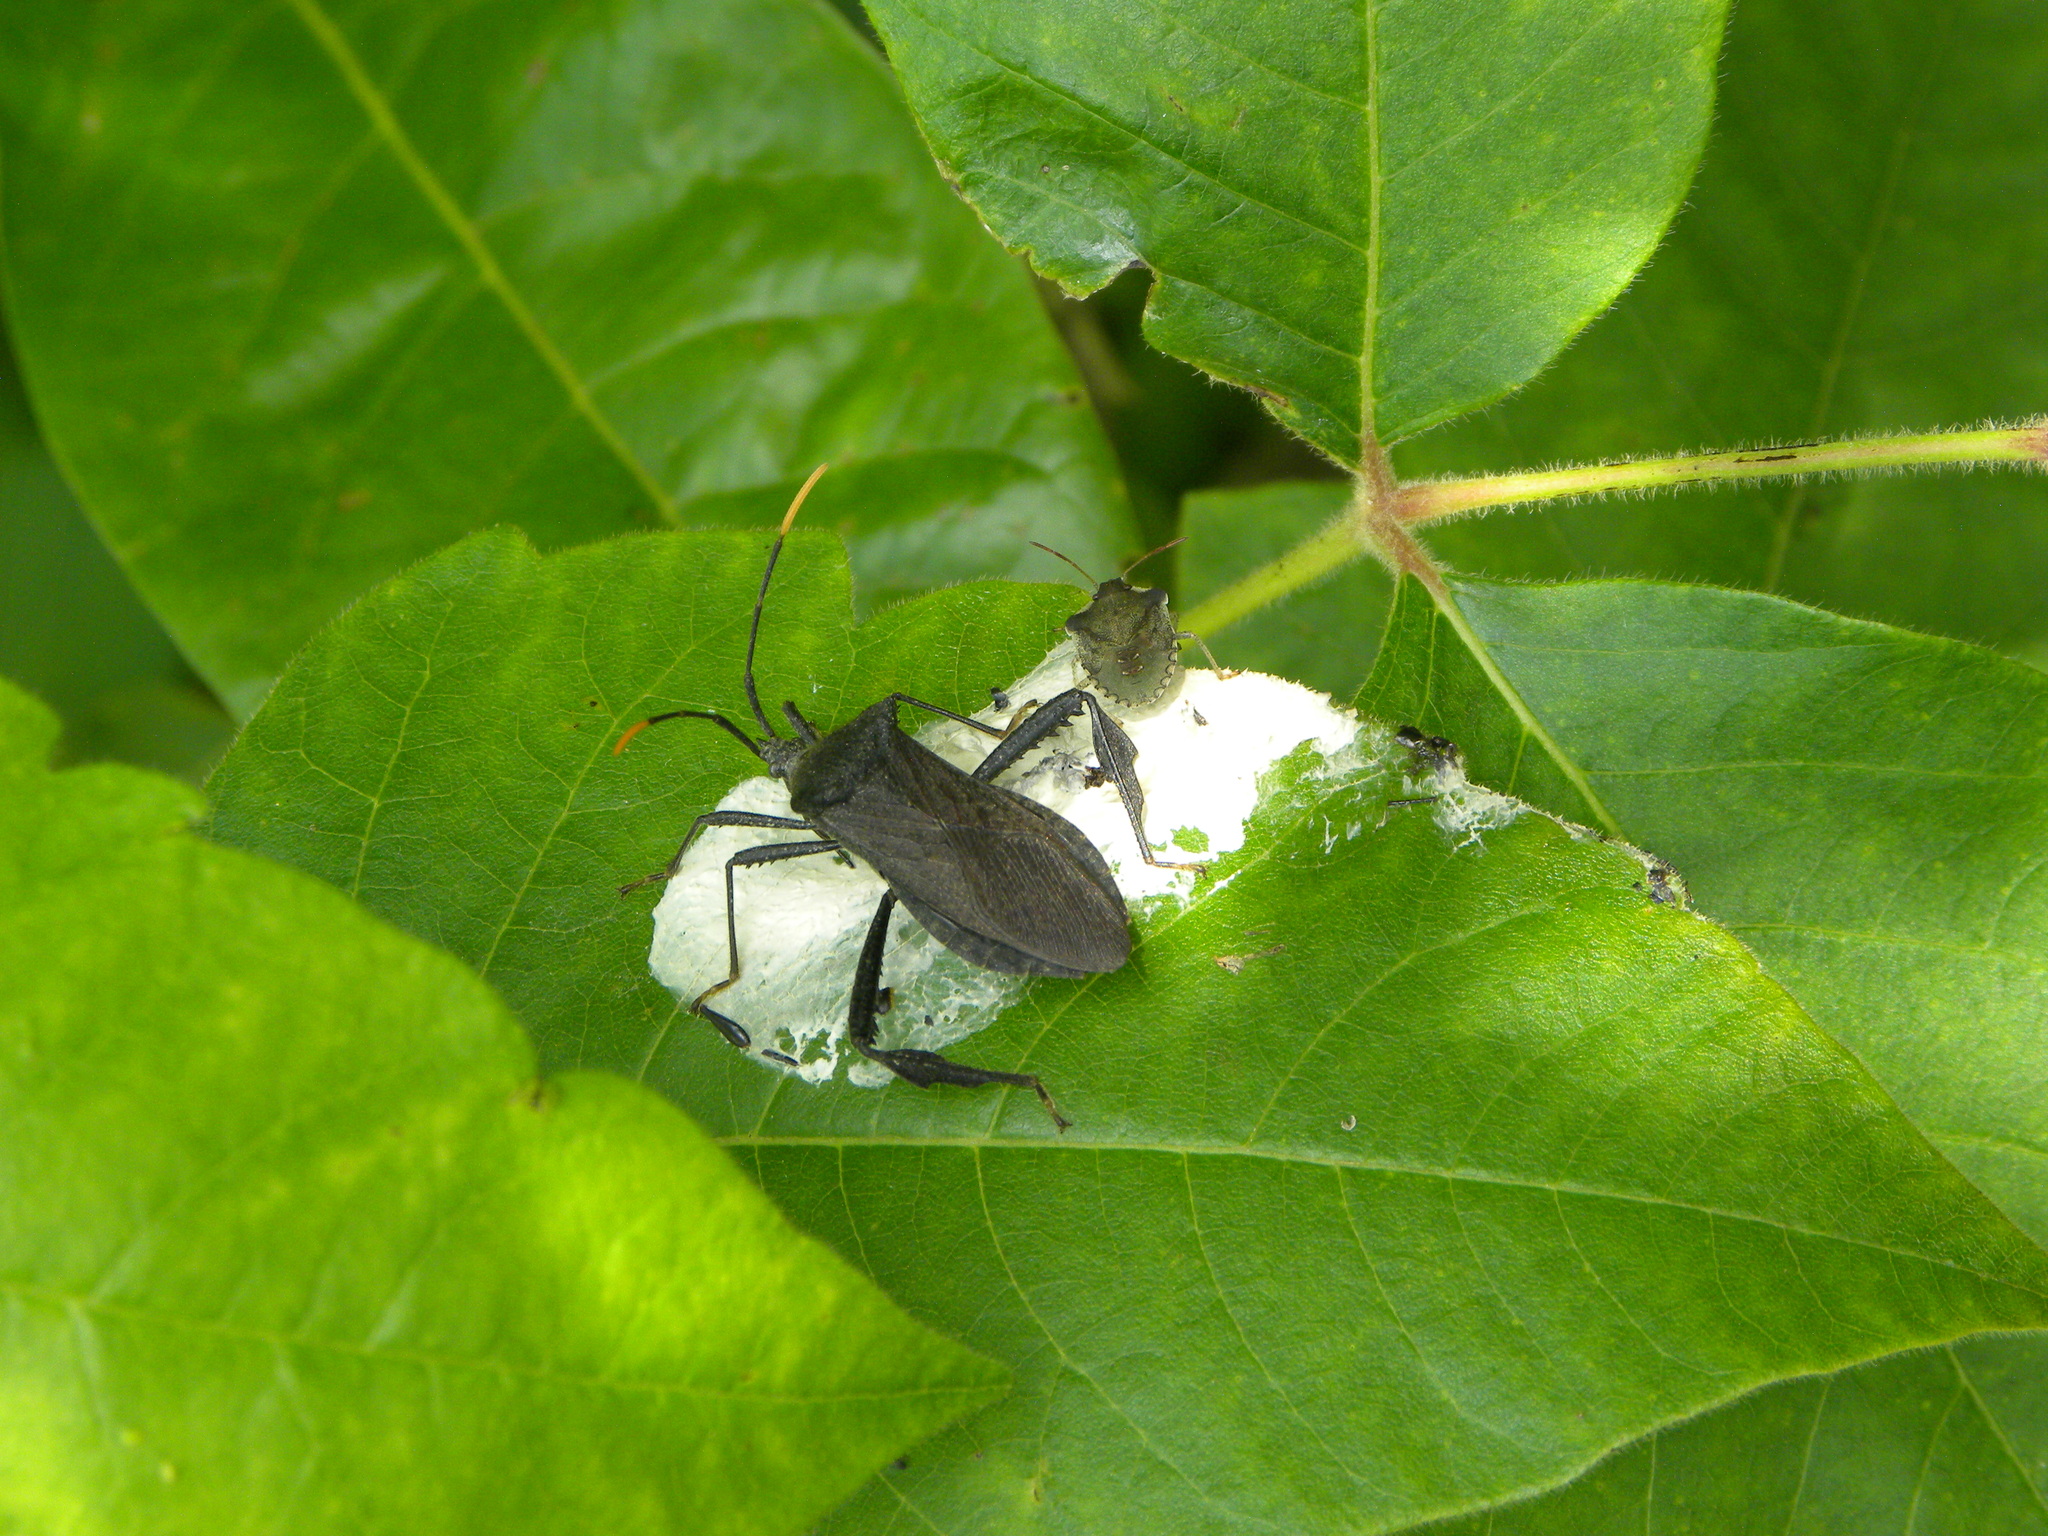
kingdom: Animalia
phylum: Arthropoda
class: Insecta
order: Hemiptera
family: Coreidae
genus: Acanthocephala
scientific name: Acanthocephala terminalis
